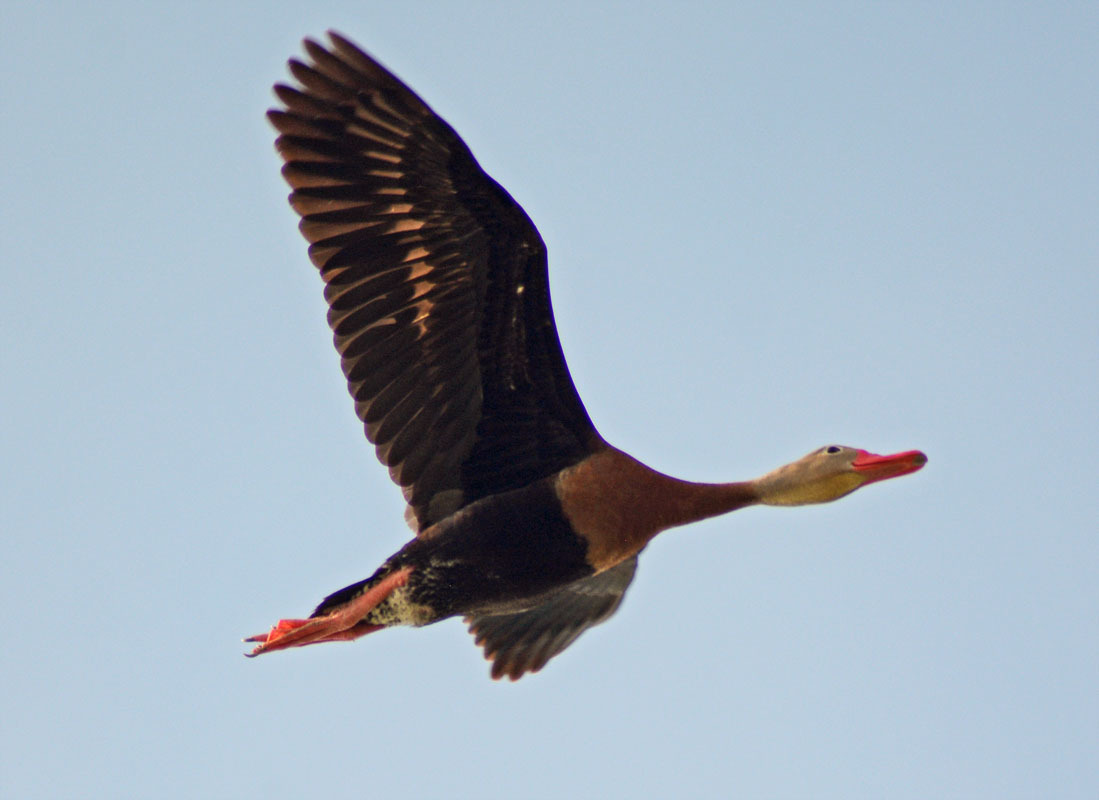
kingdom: Animalia
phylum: Chordata
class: Aves
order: Anseriformes
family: Anatidae
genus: Dendrocygna
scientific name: Dendrocygna autumnalis
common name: Black-bellied whistling duck
